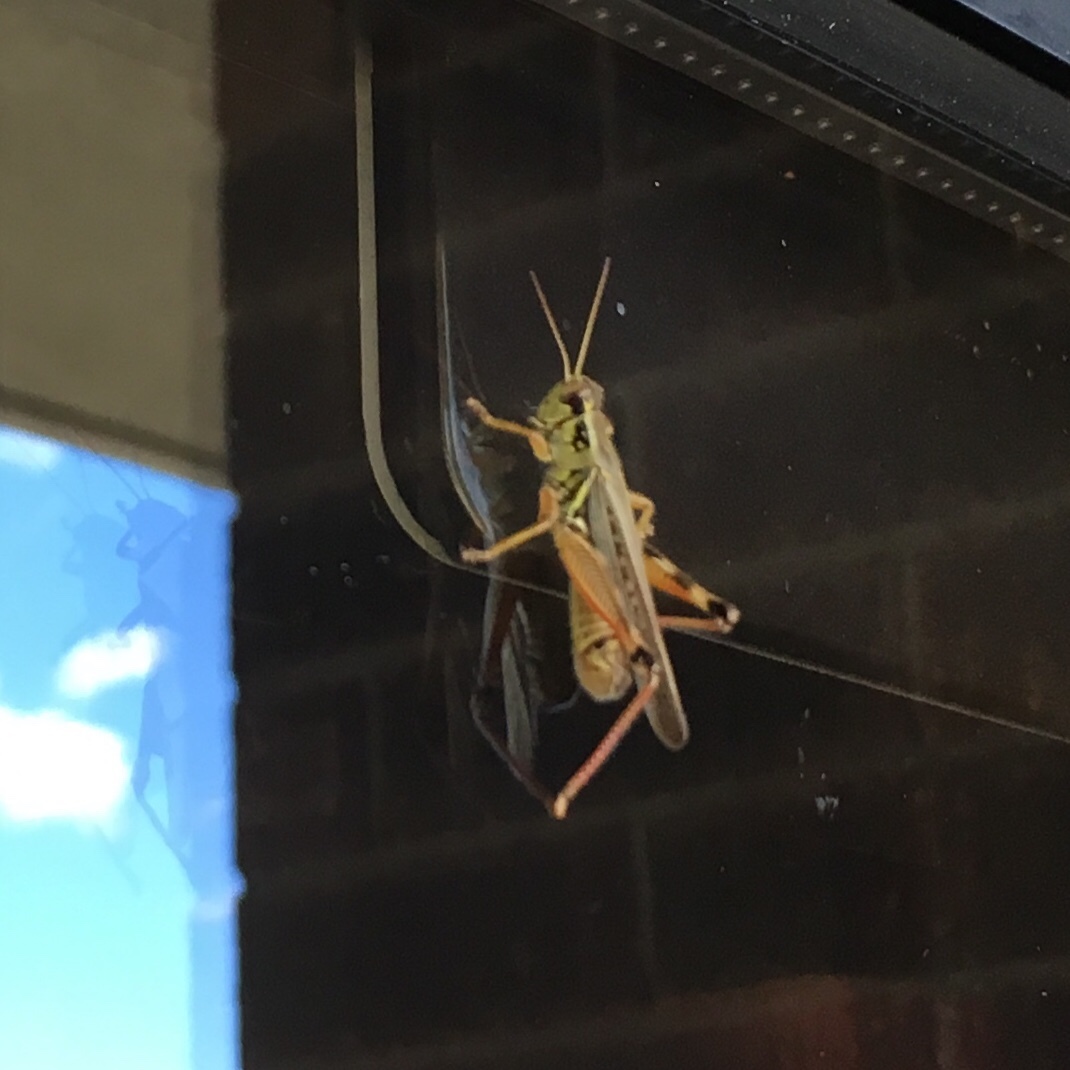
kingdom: Animalia
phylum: Arthropoda
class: Insecta
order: Orthoptera
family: Acrididae
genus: Melanoplus
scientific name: Melanoplus femurrubrum
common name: Red-legged grasshopper
